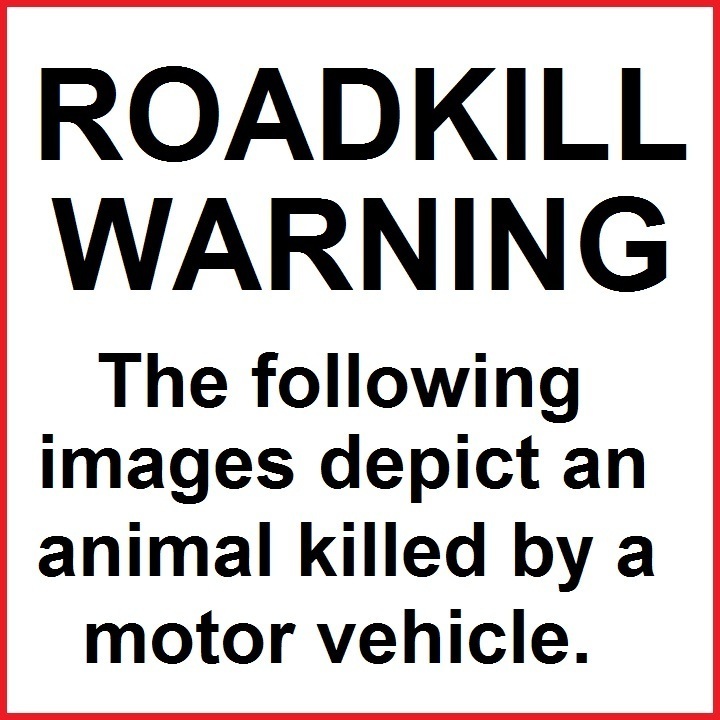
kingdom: Animalia
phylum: Chordata
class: Aves
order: Pelecaniformes
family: Ardeidae
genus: Nycticorax
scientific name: Nycticorax nycticorax
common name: Black-crowned night heron
